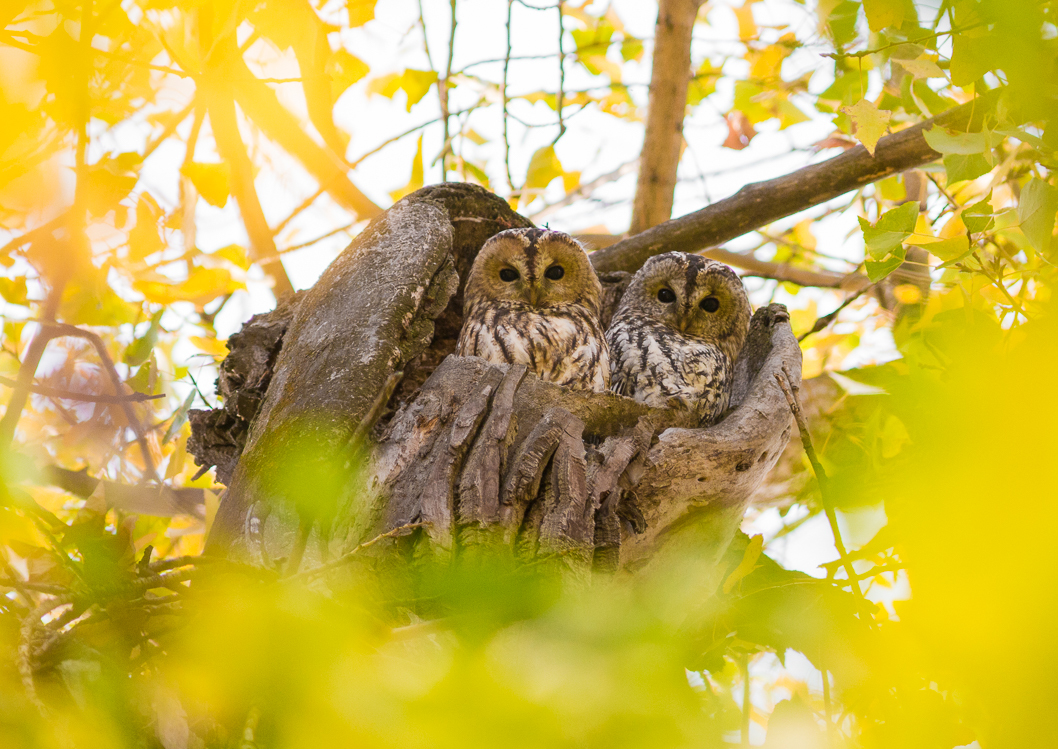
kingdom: Animalia
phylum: Chordata
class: Aves
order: Strigiformes
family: Strigidae
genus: Strix
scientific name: Strix aluco
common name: Tawny owl
